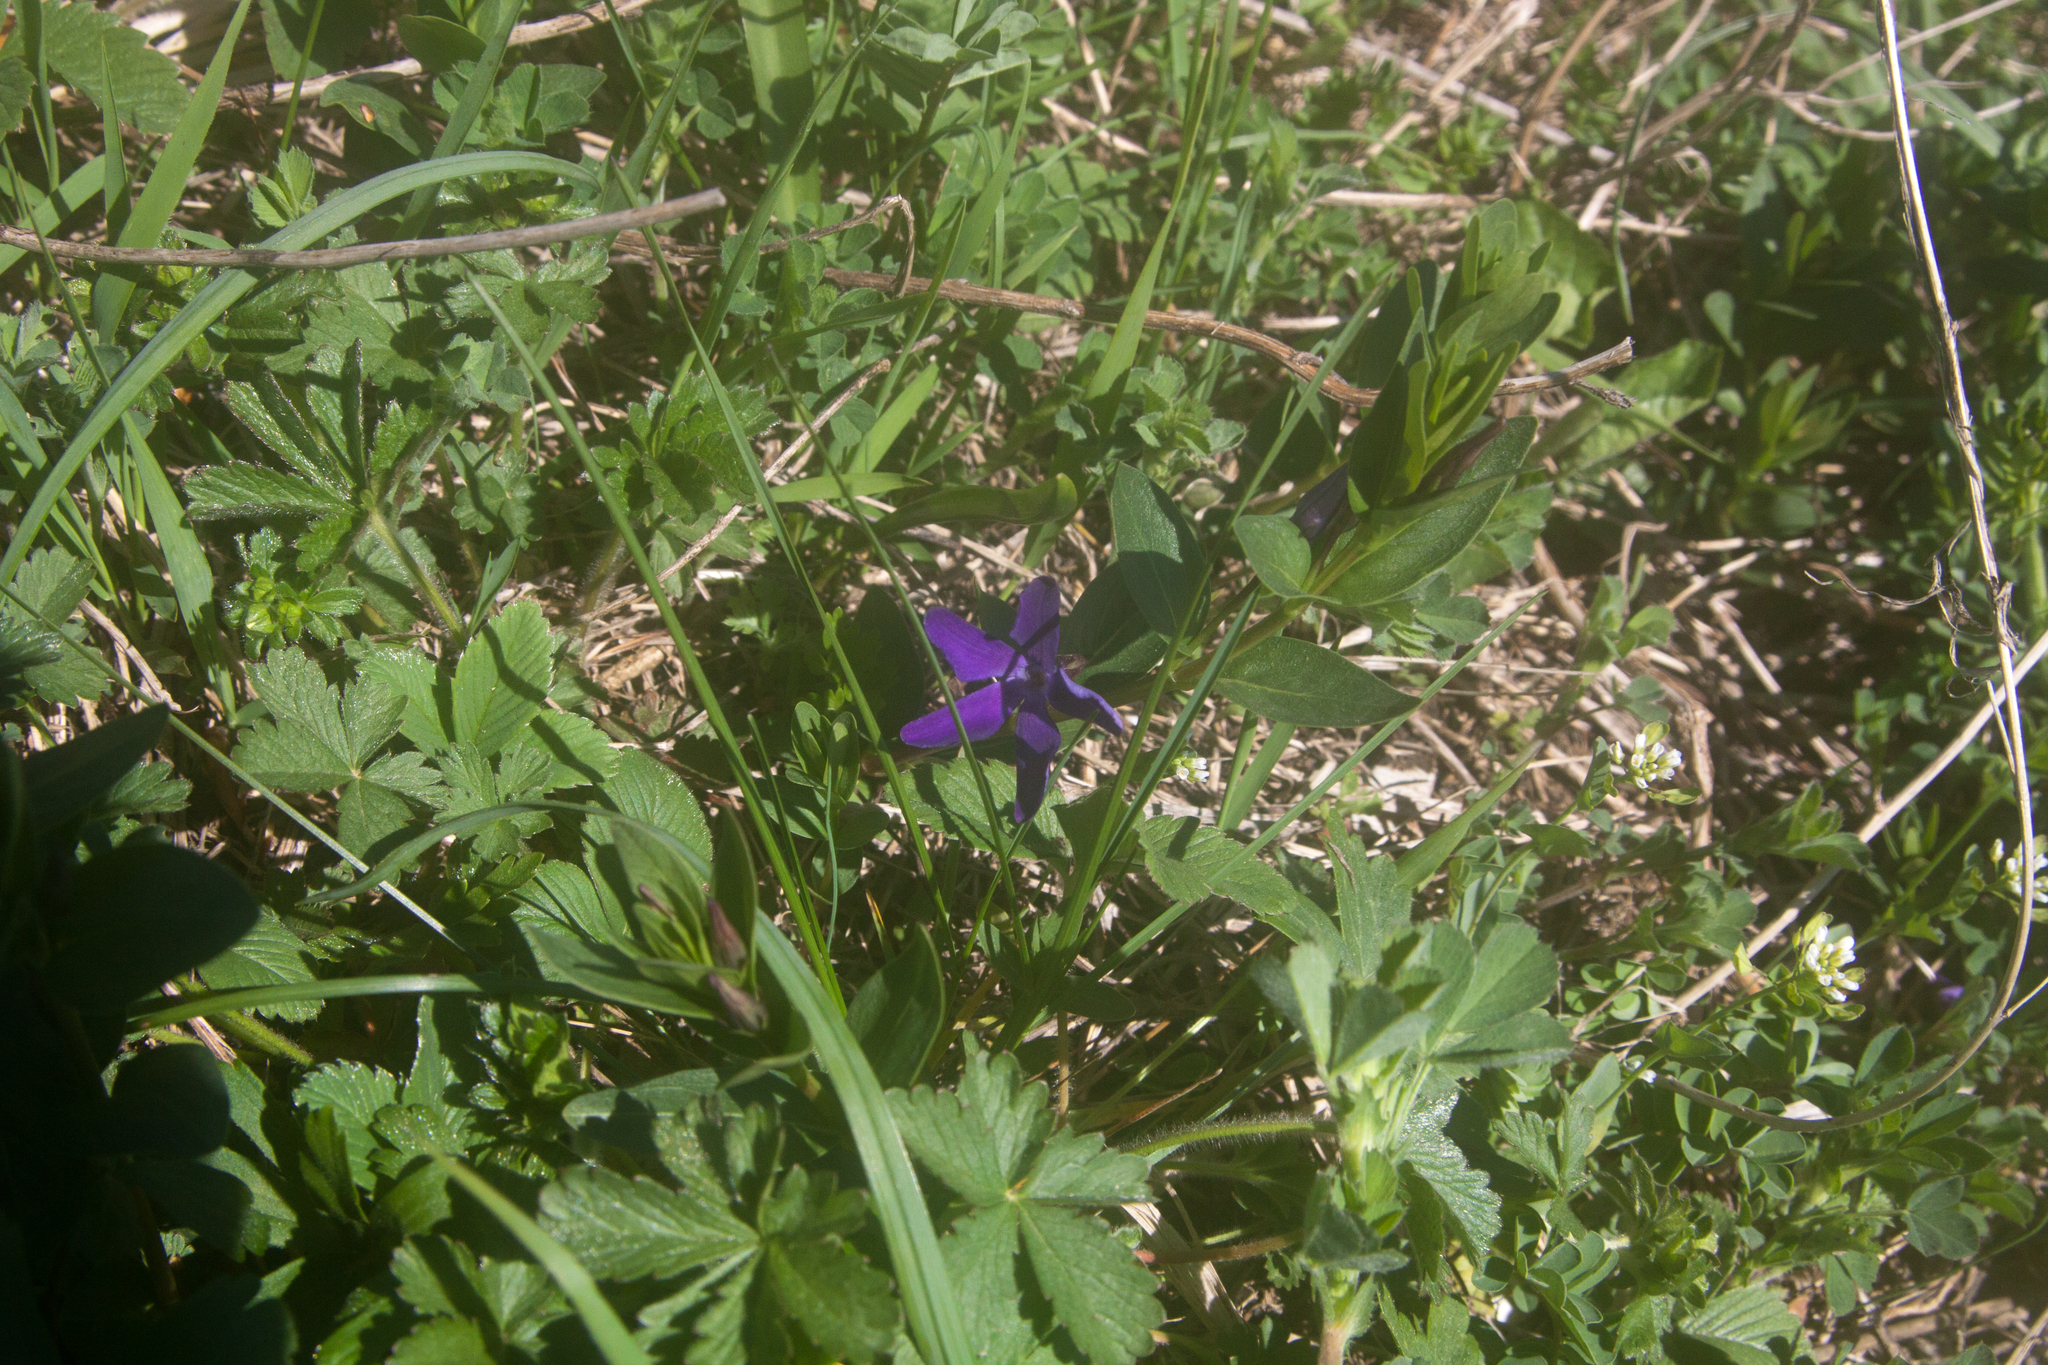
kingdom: Plantae
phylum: Tracheophyta
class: Magnoliopsida
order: Gentianales
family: Apocynaceae
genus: Vinca
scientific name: Vinca herbacea
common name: Herbaceous periwinkle
